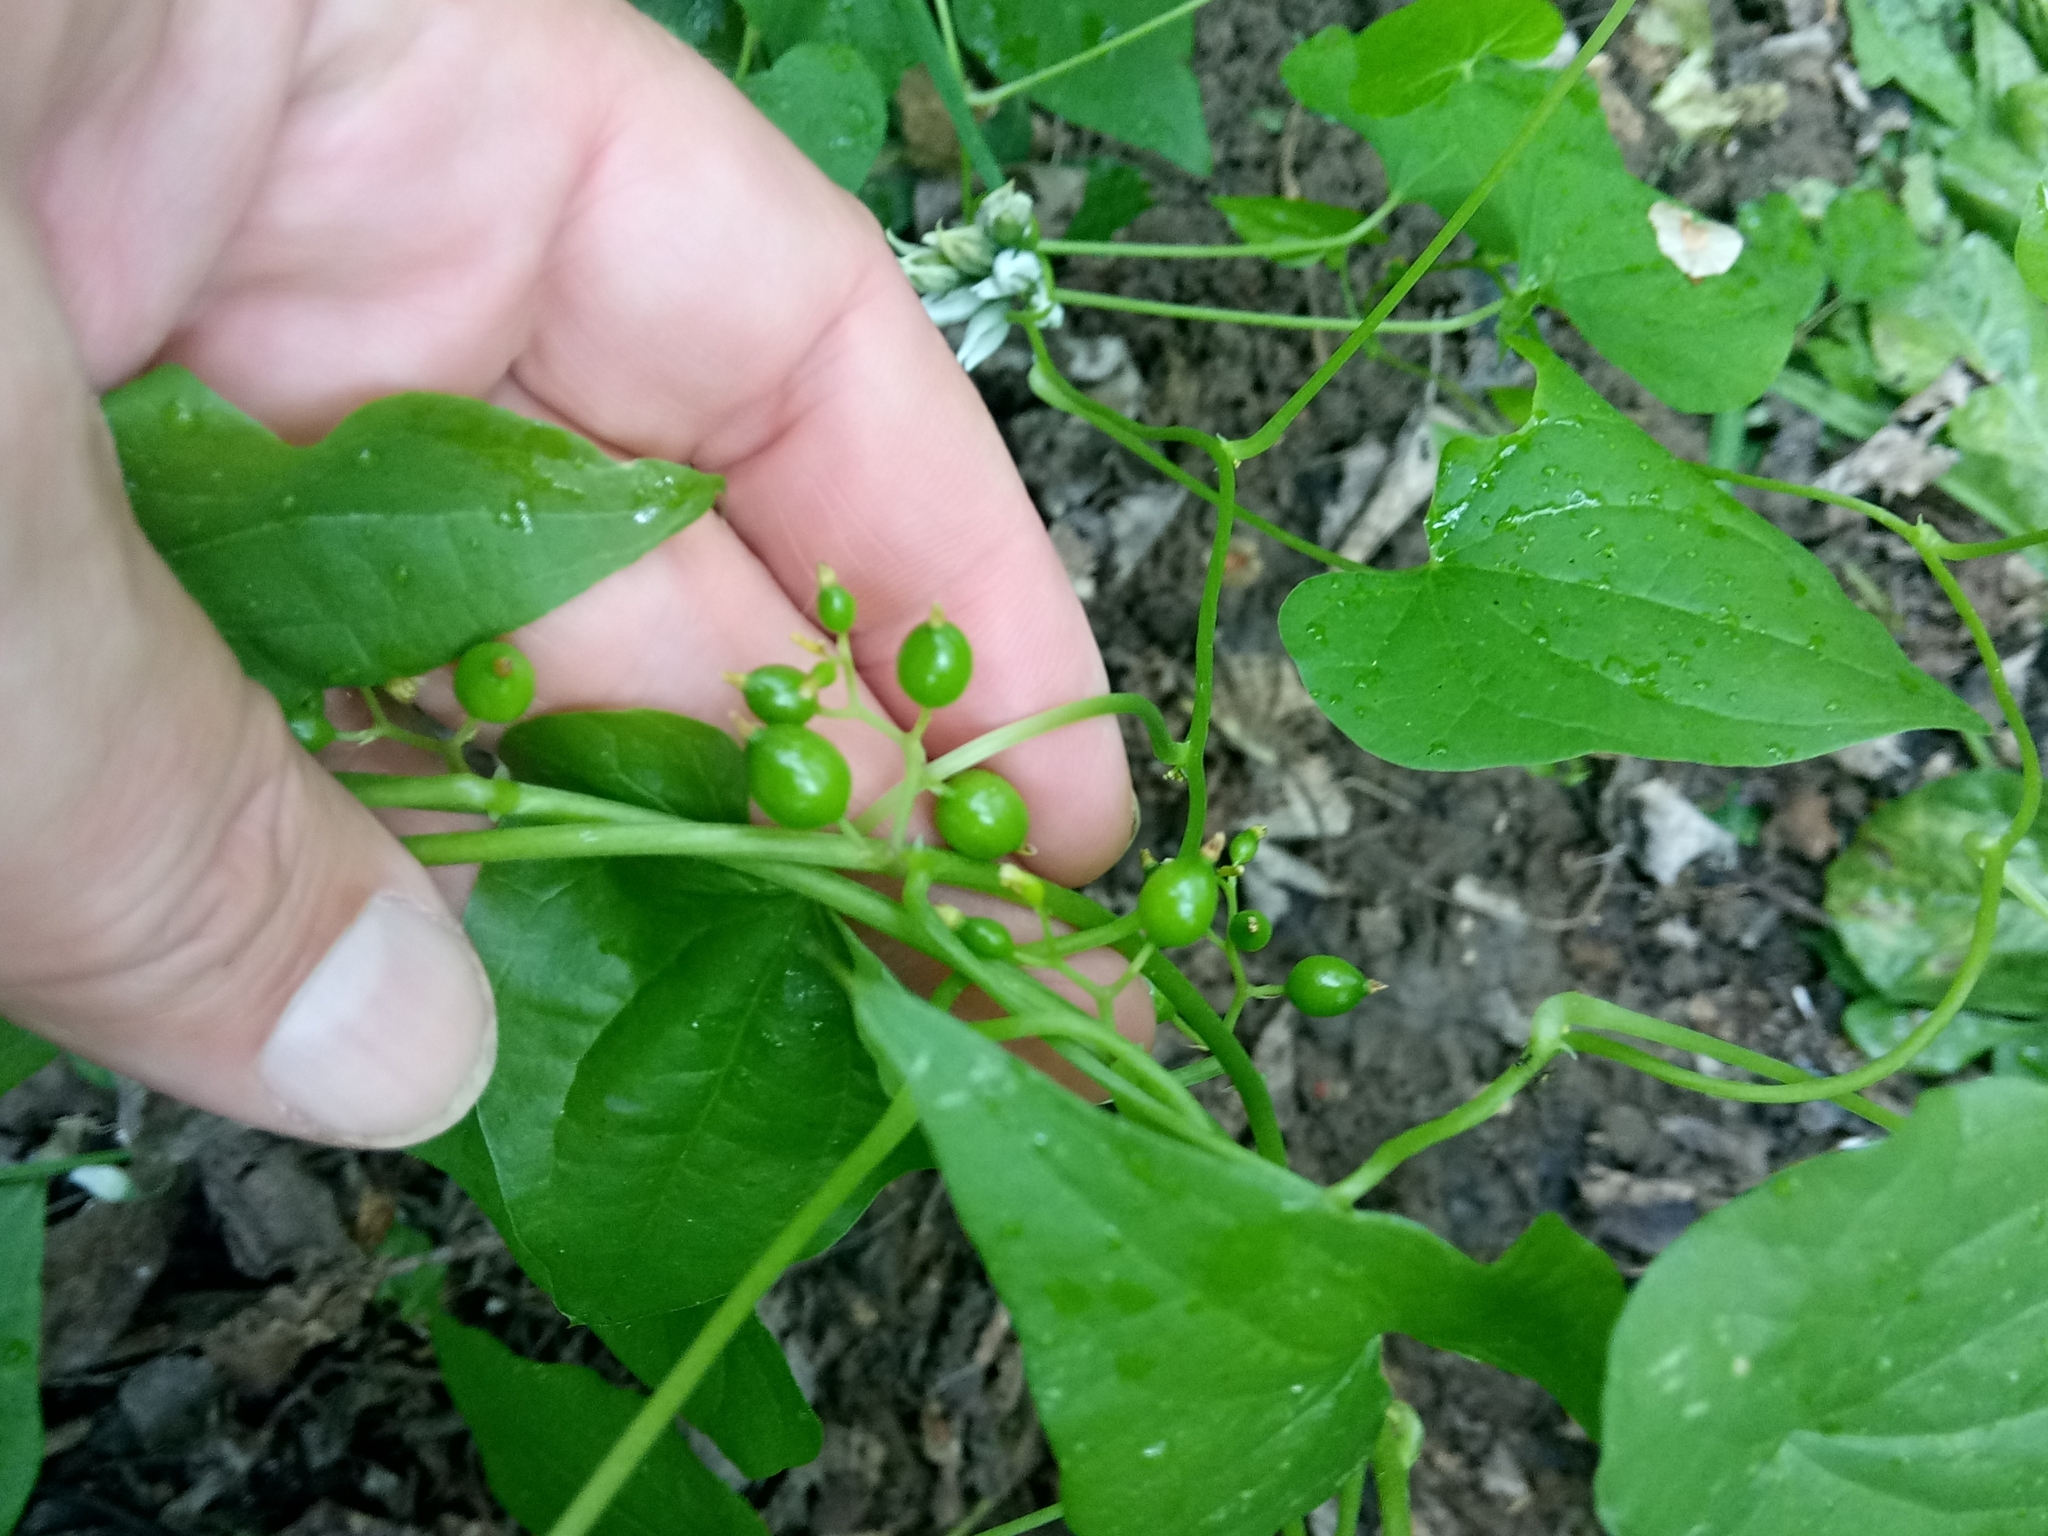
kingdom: Plantae
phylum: Tracheophyta
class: Liliopsida
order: Dioscoreales
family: Dioscoreaceae
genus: Dioscorea
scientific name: Dioscorea communis
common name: Black-bindweed
